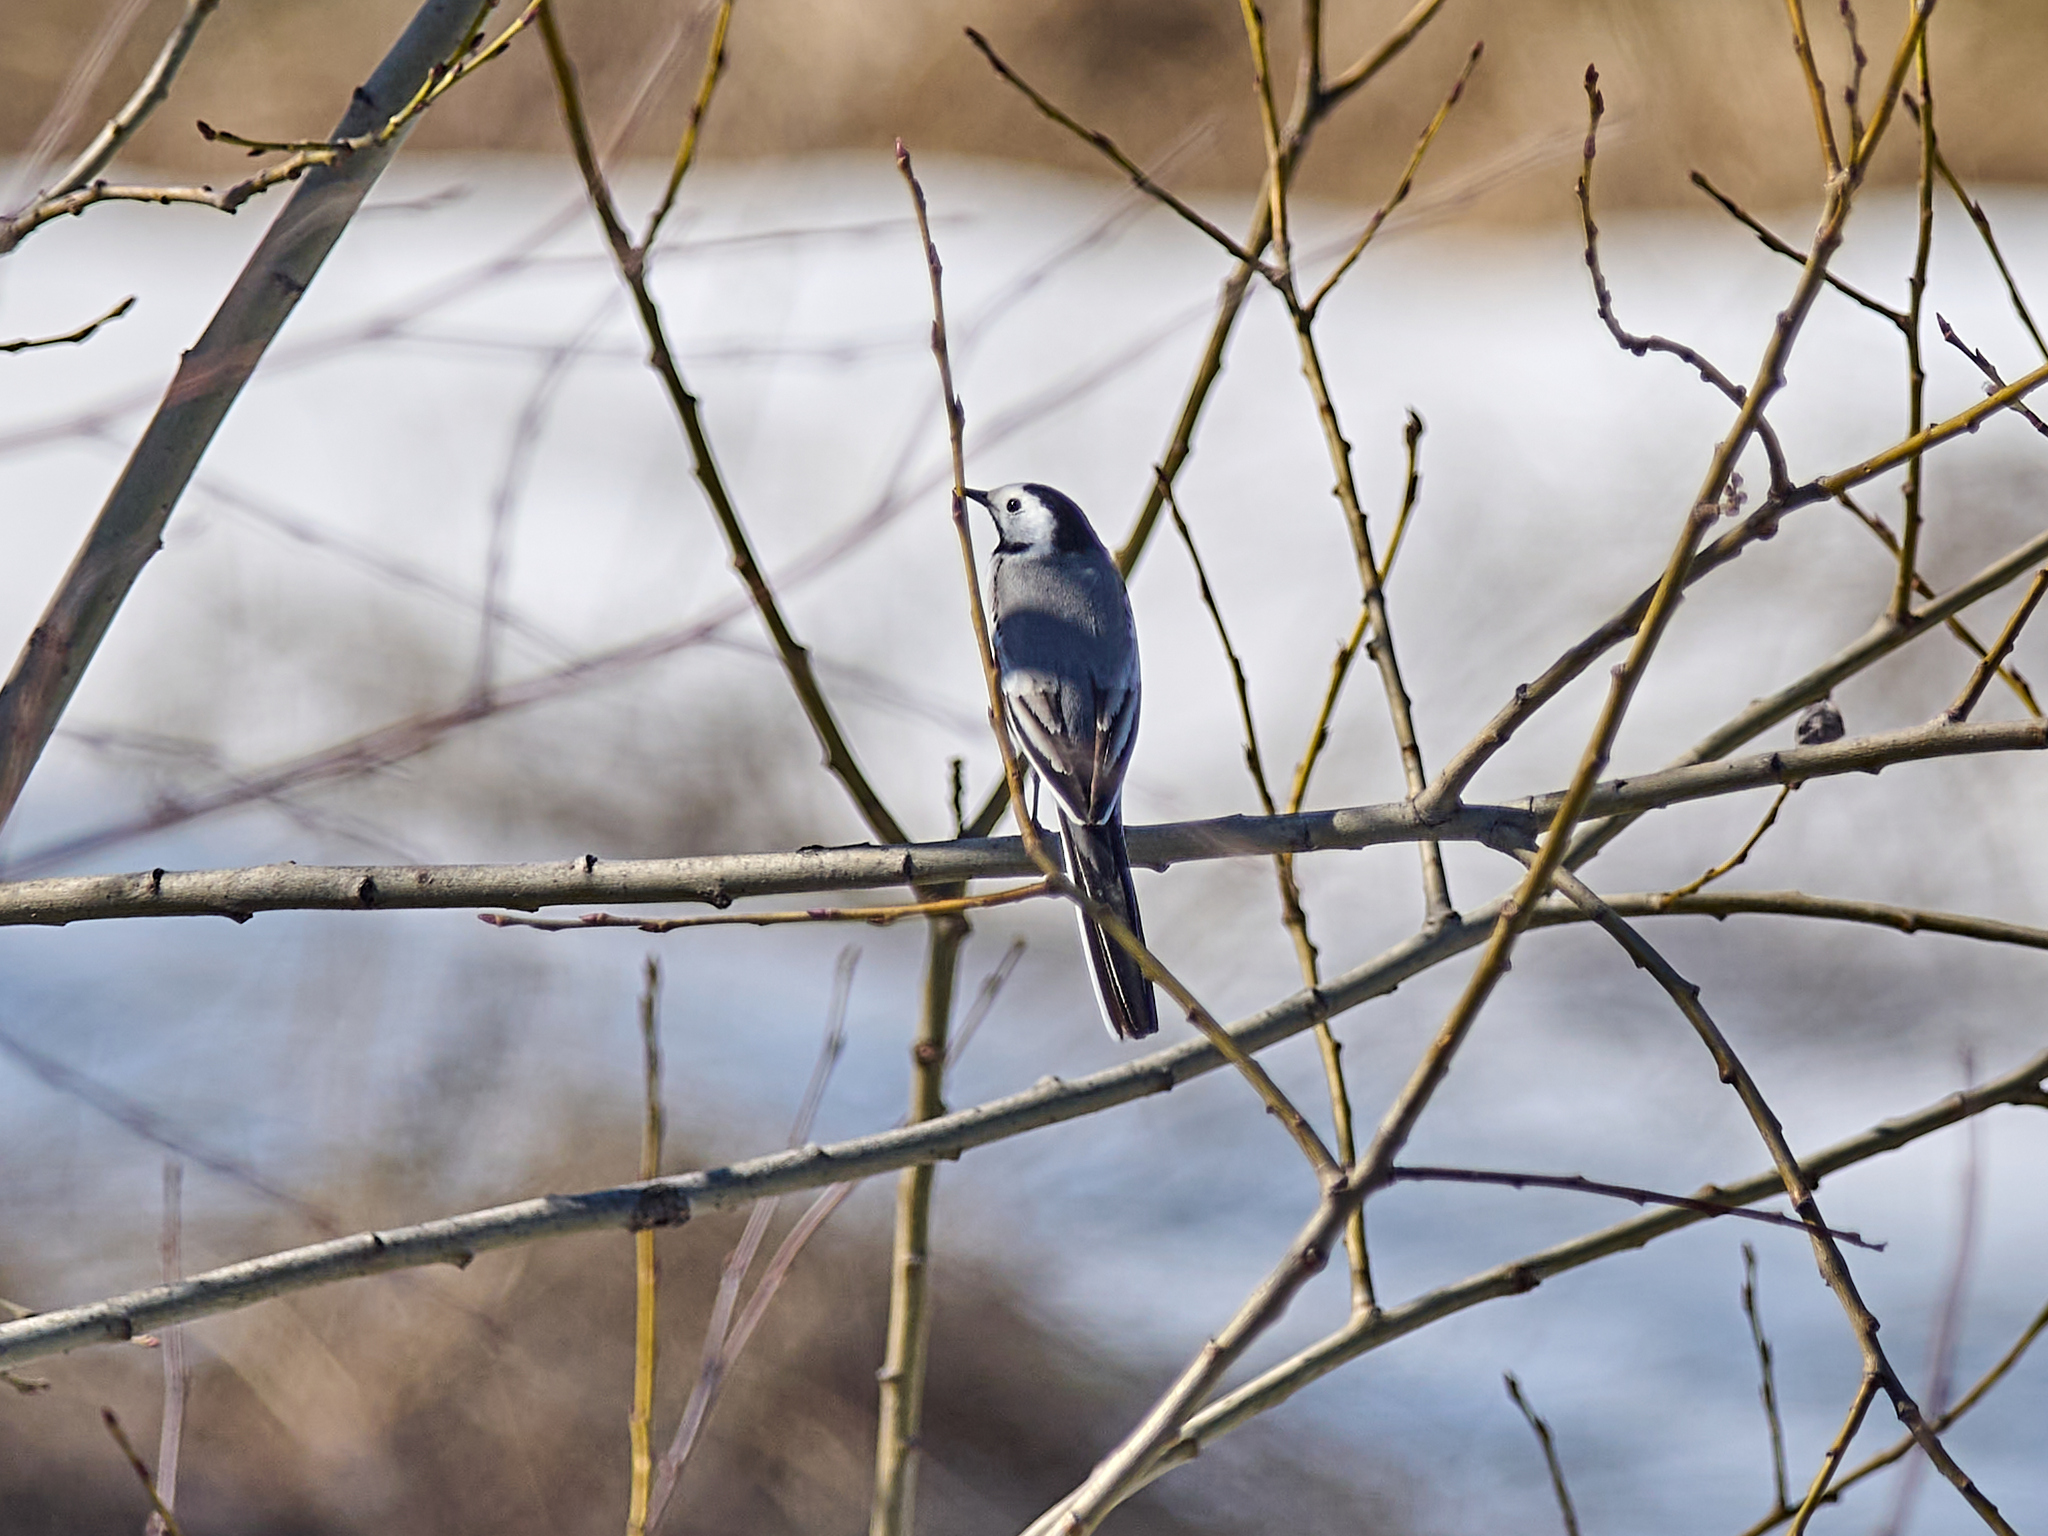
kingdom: Animalia
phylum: Chordata
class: Aves
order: Passeriformes
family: Motacillidae
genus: Motacilla
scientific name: Motacilla alba
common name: White wagtail
